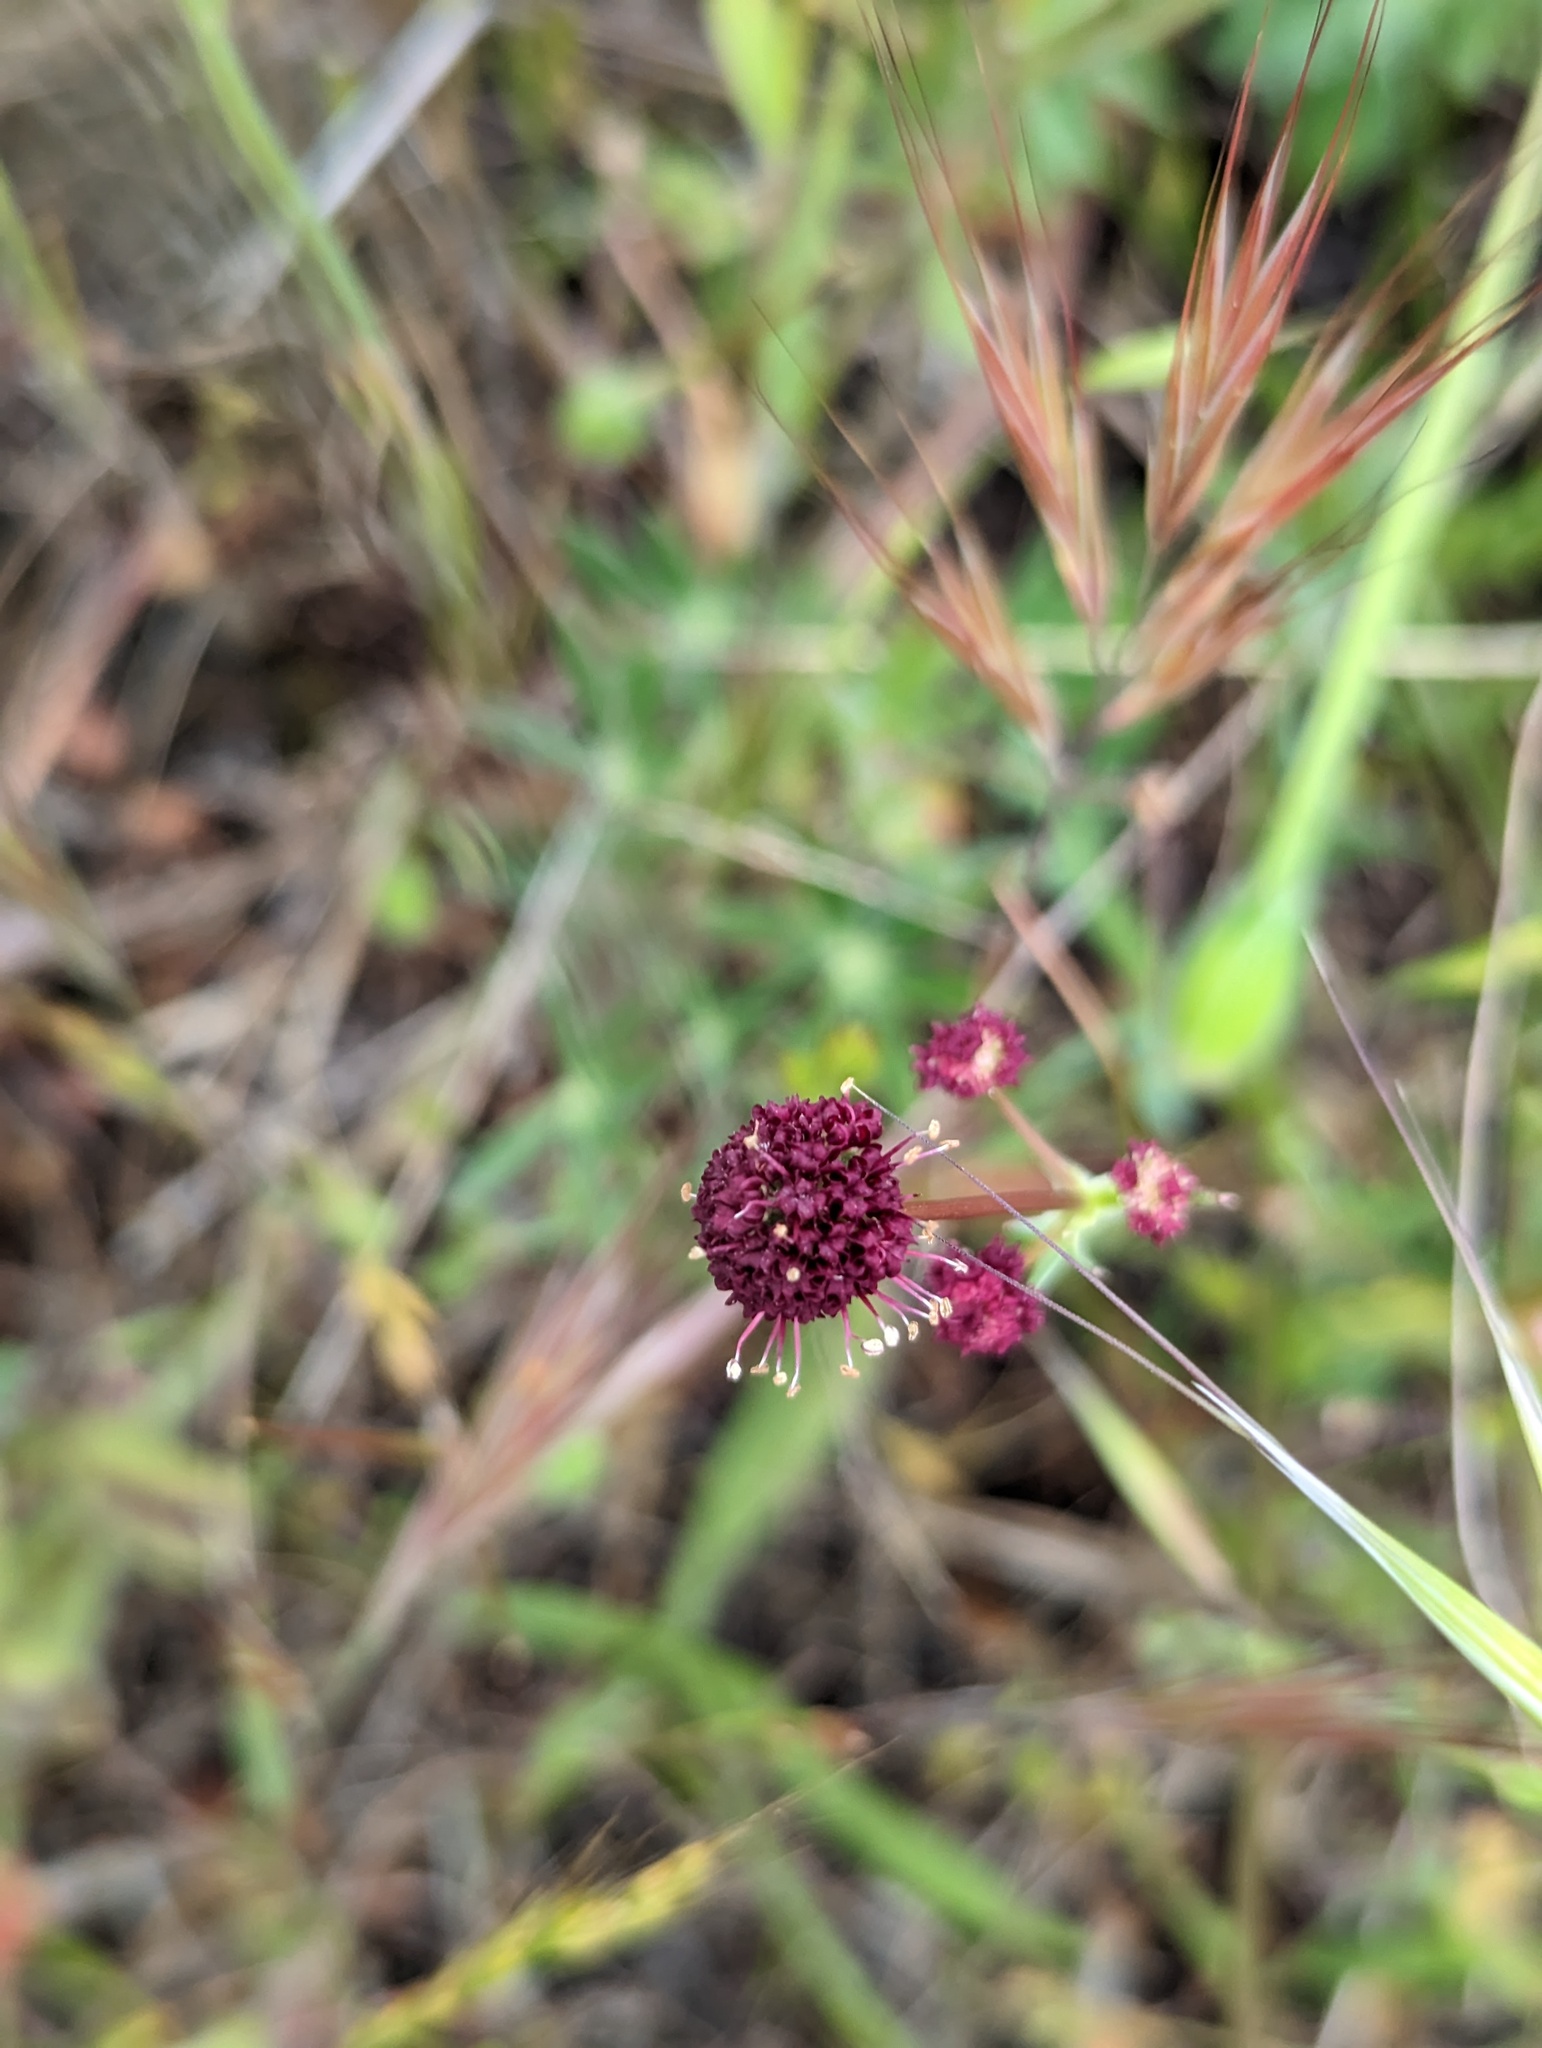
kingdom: Plantae
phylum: Tracheophyta
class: Magnoliopsida
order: Apiales
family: Apiaceae
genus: Sanicula
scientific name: Sanicula bipinnatifida
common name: Shoe-buttons
